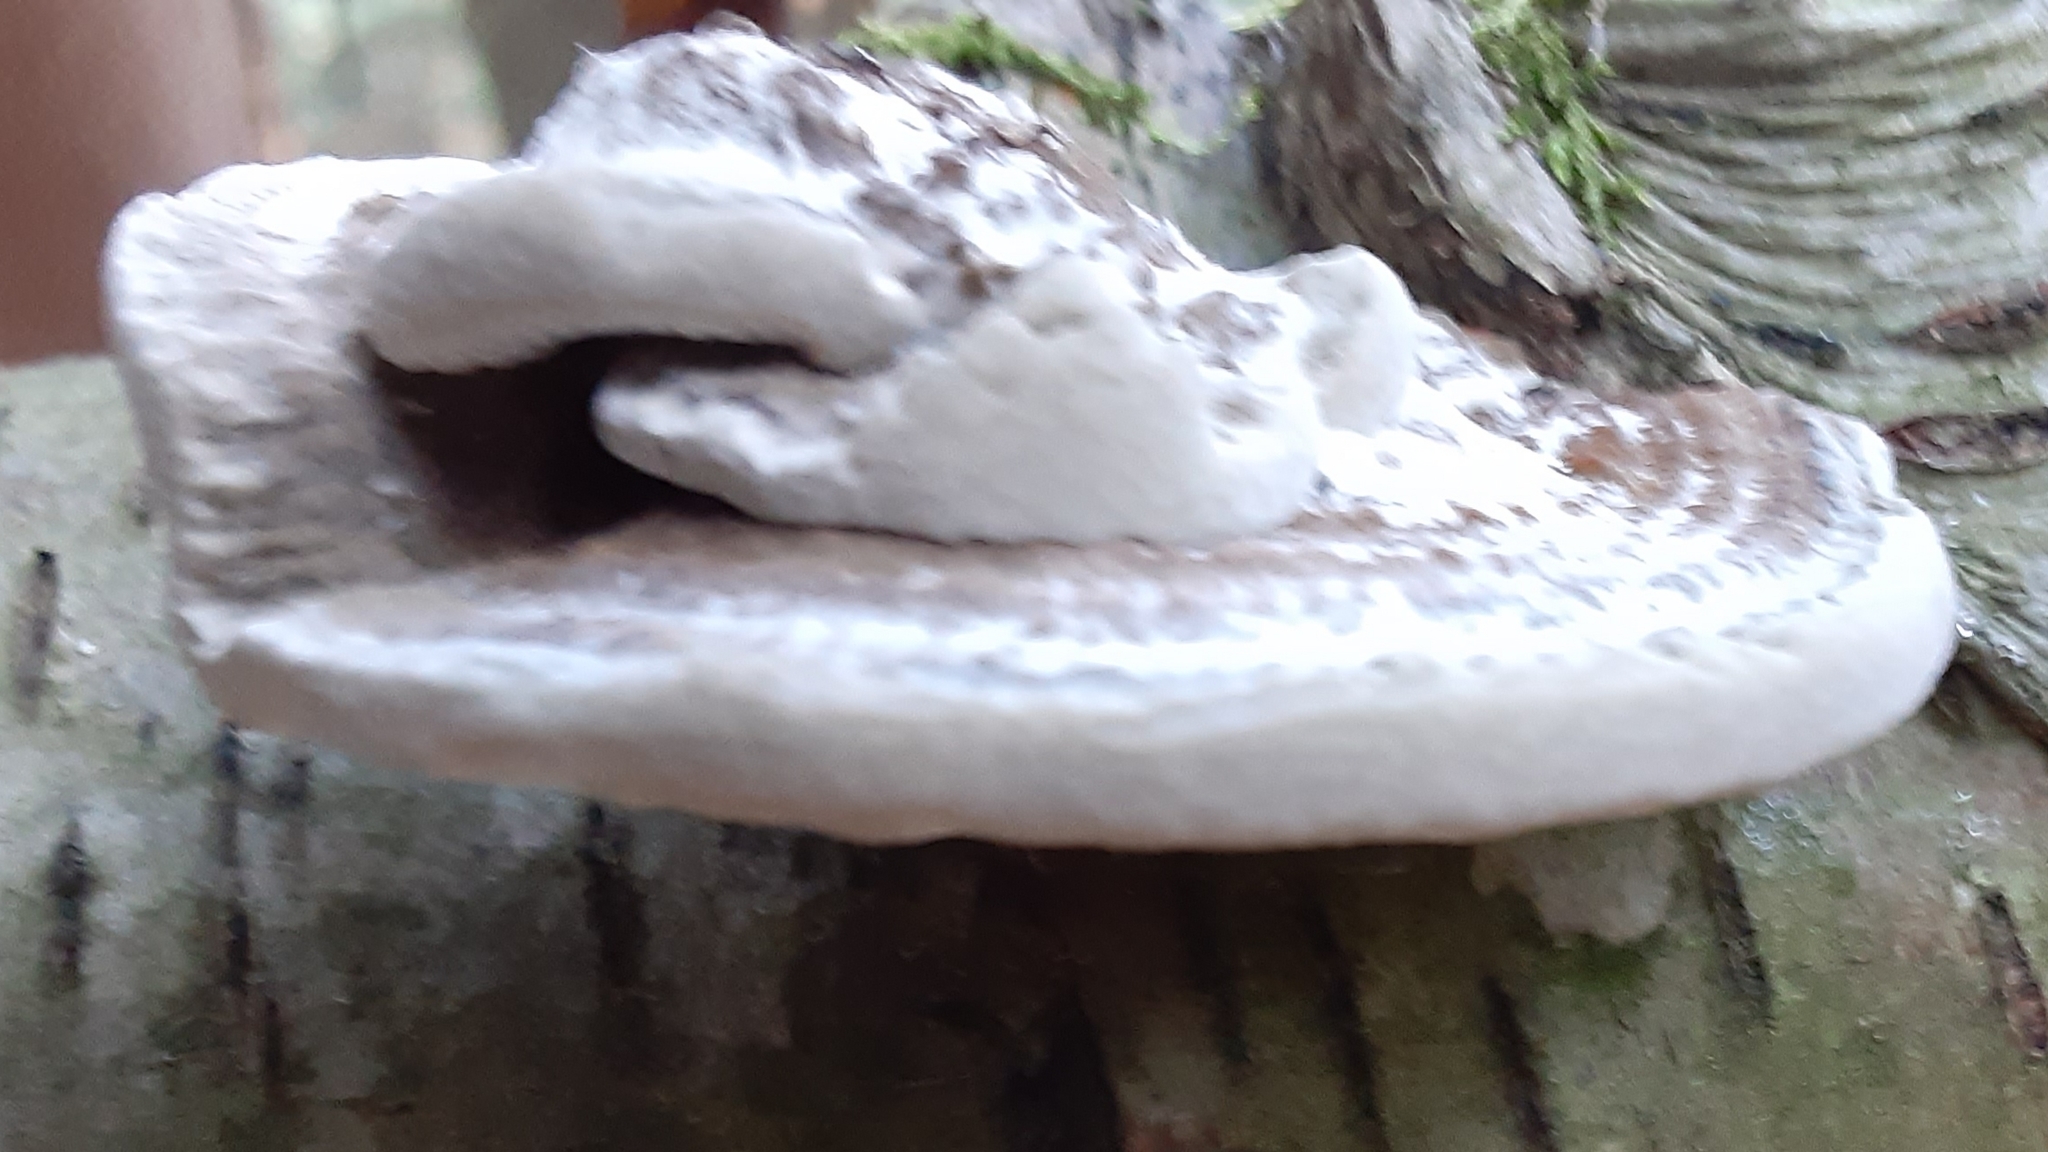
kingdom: Fungi
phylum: Basidiomycota
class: Agaricomycetes
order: Polyporales
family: Polyporaceae
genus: Daedaleopsis
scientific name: Daedaleopsis confragosa
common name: Blushing bracket
